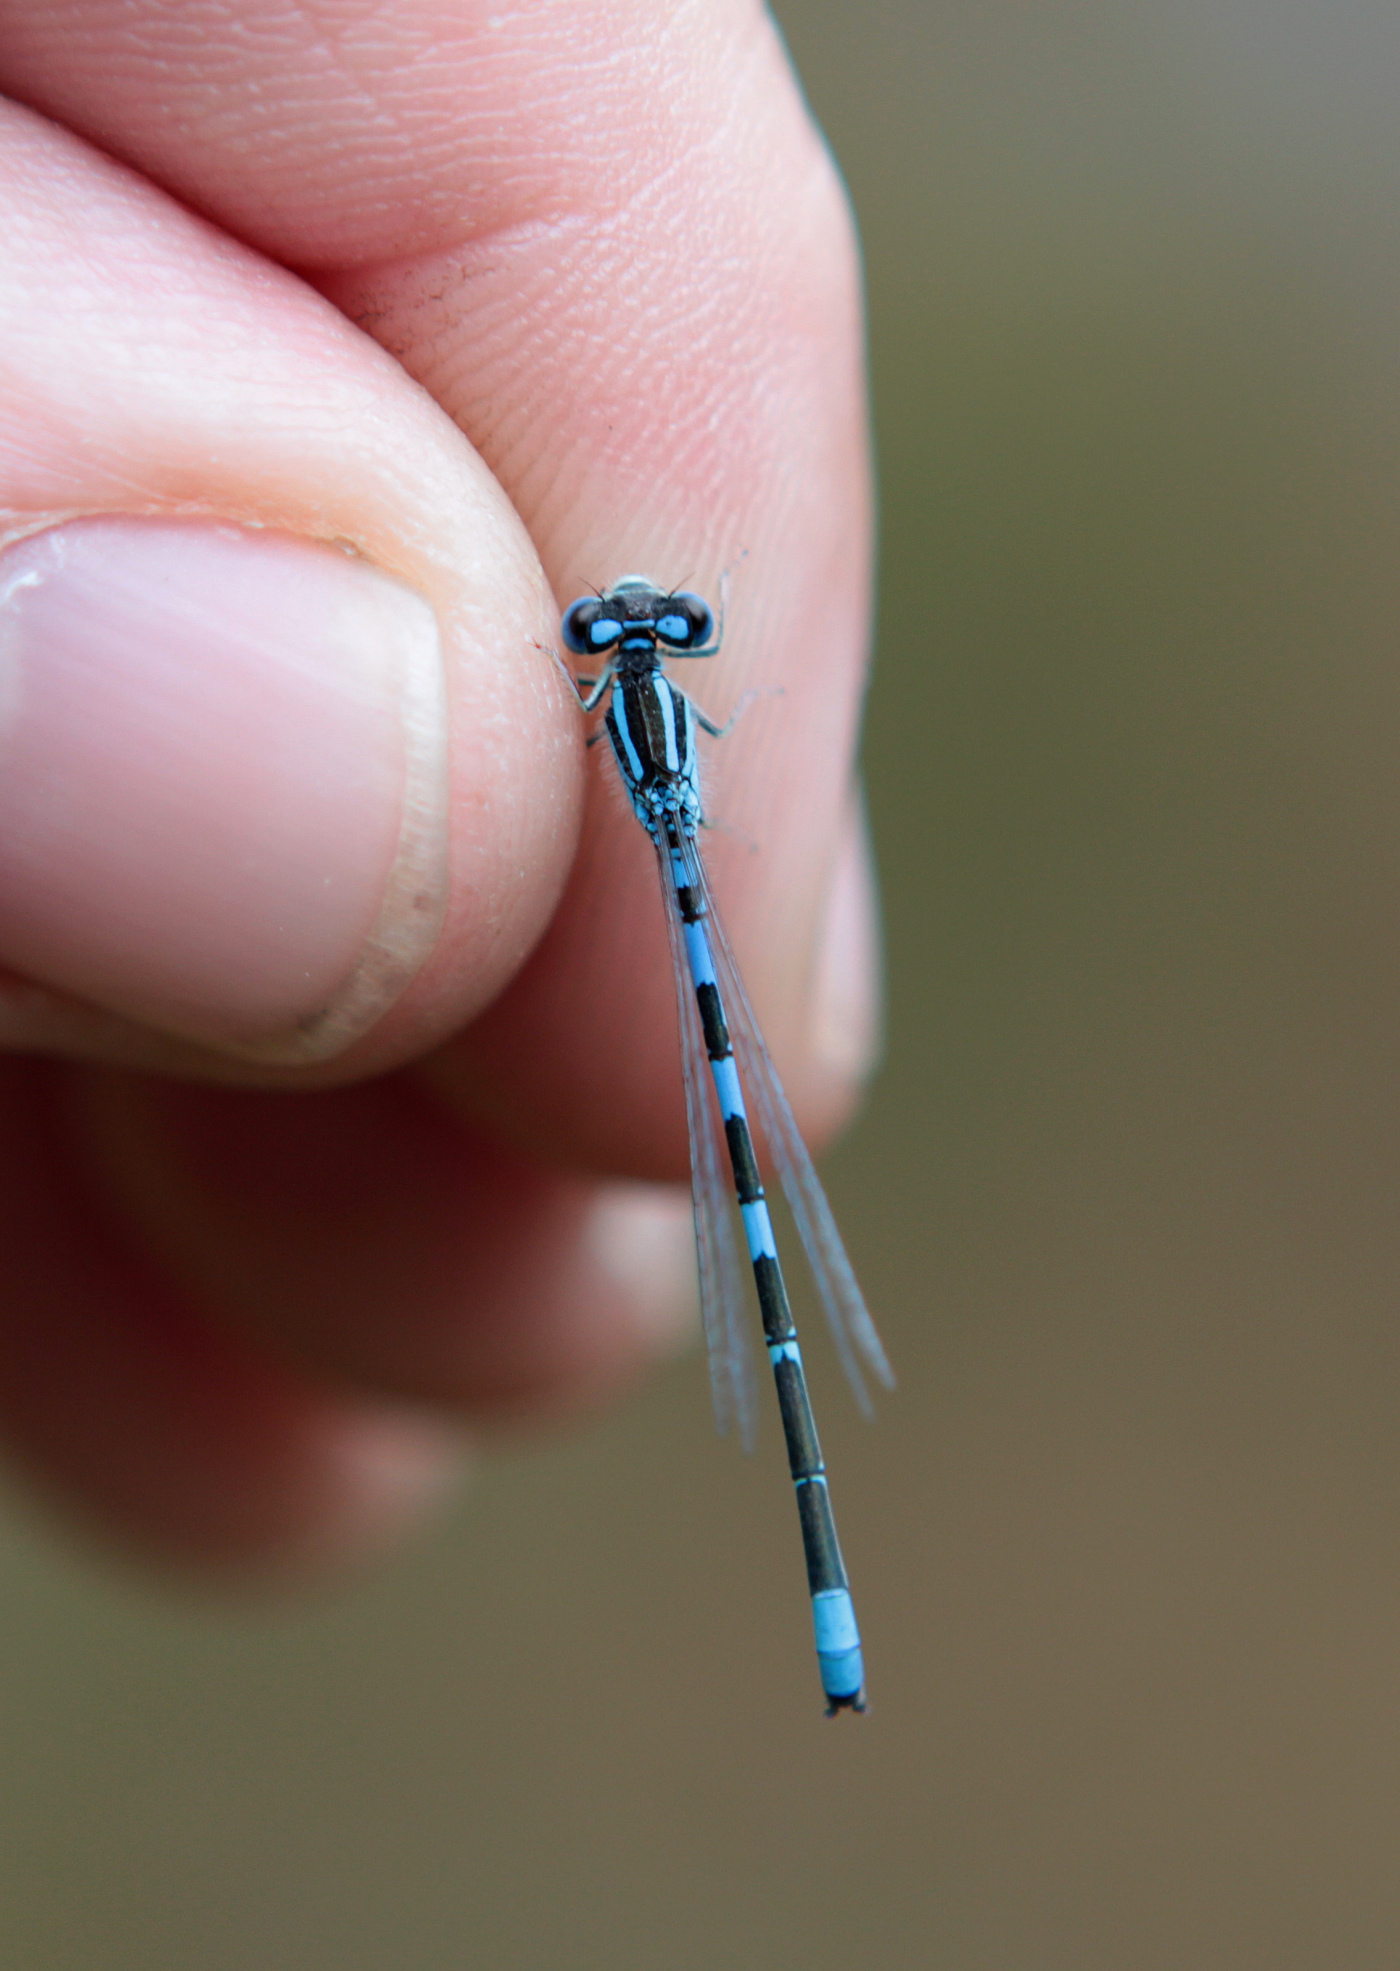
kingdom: Animalia
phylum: Arthropoda
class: Insecta
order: Odonata
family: Coenagrionidae
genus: Coenagrion
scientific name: Coenagrion scitulum
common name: Dainty bluet
